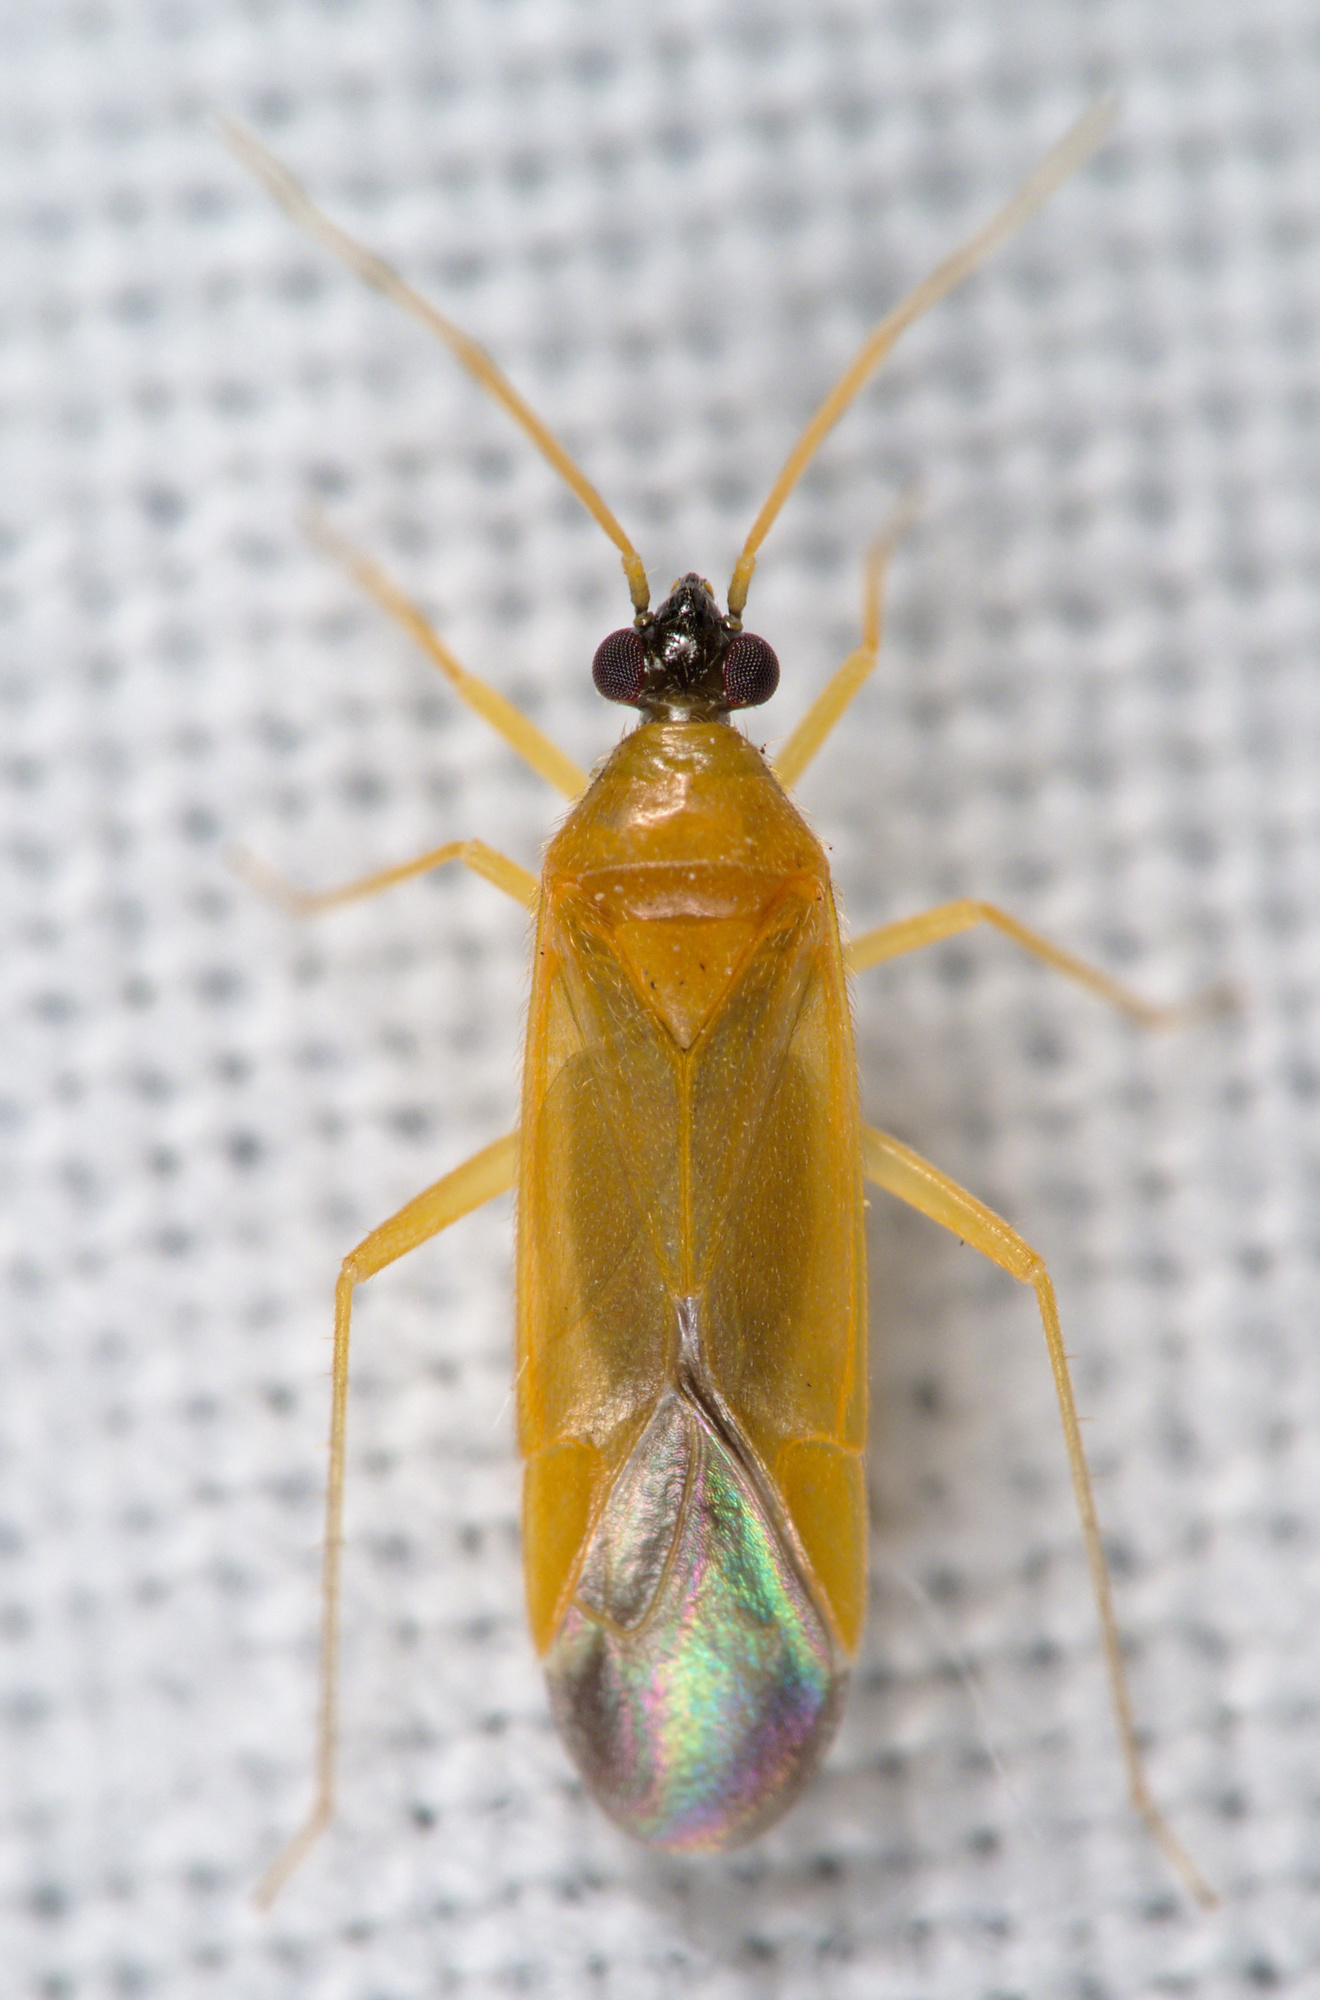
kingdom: Animalia
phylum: Arthropoda
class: Insecta
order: Hemiptera
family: Miridae
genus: Phylus
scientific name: Phylus melanocephalus
